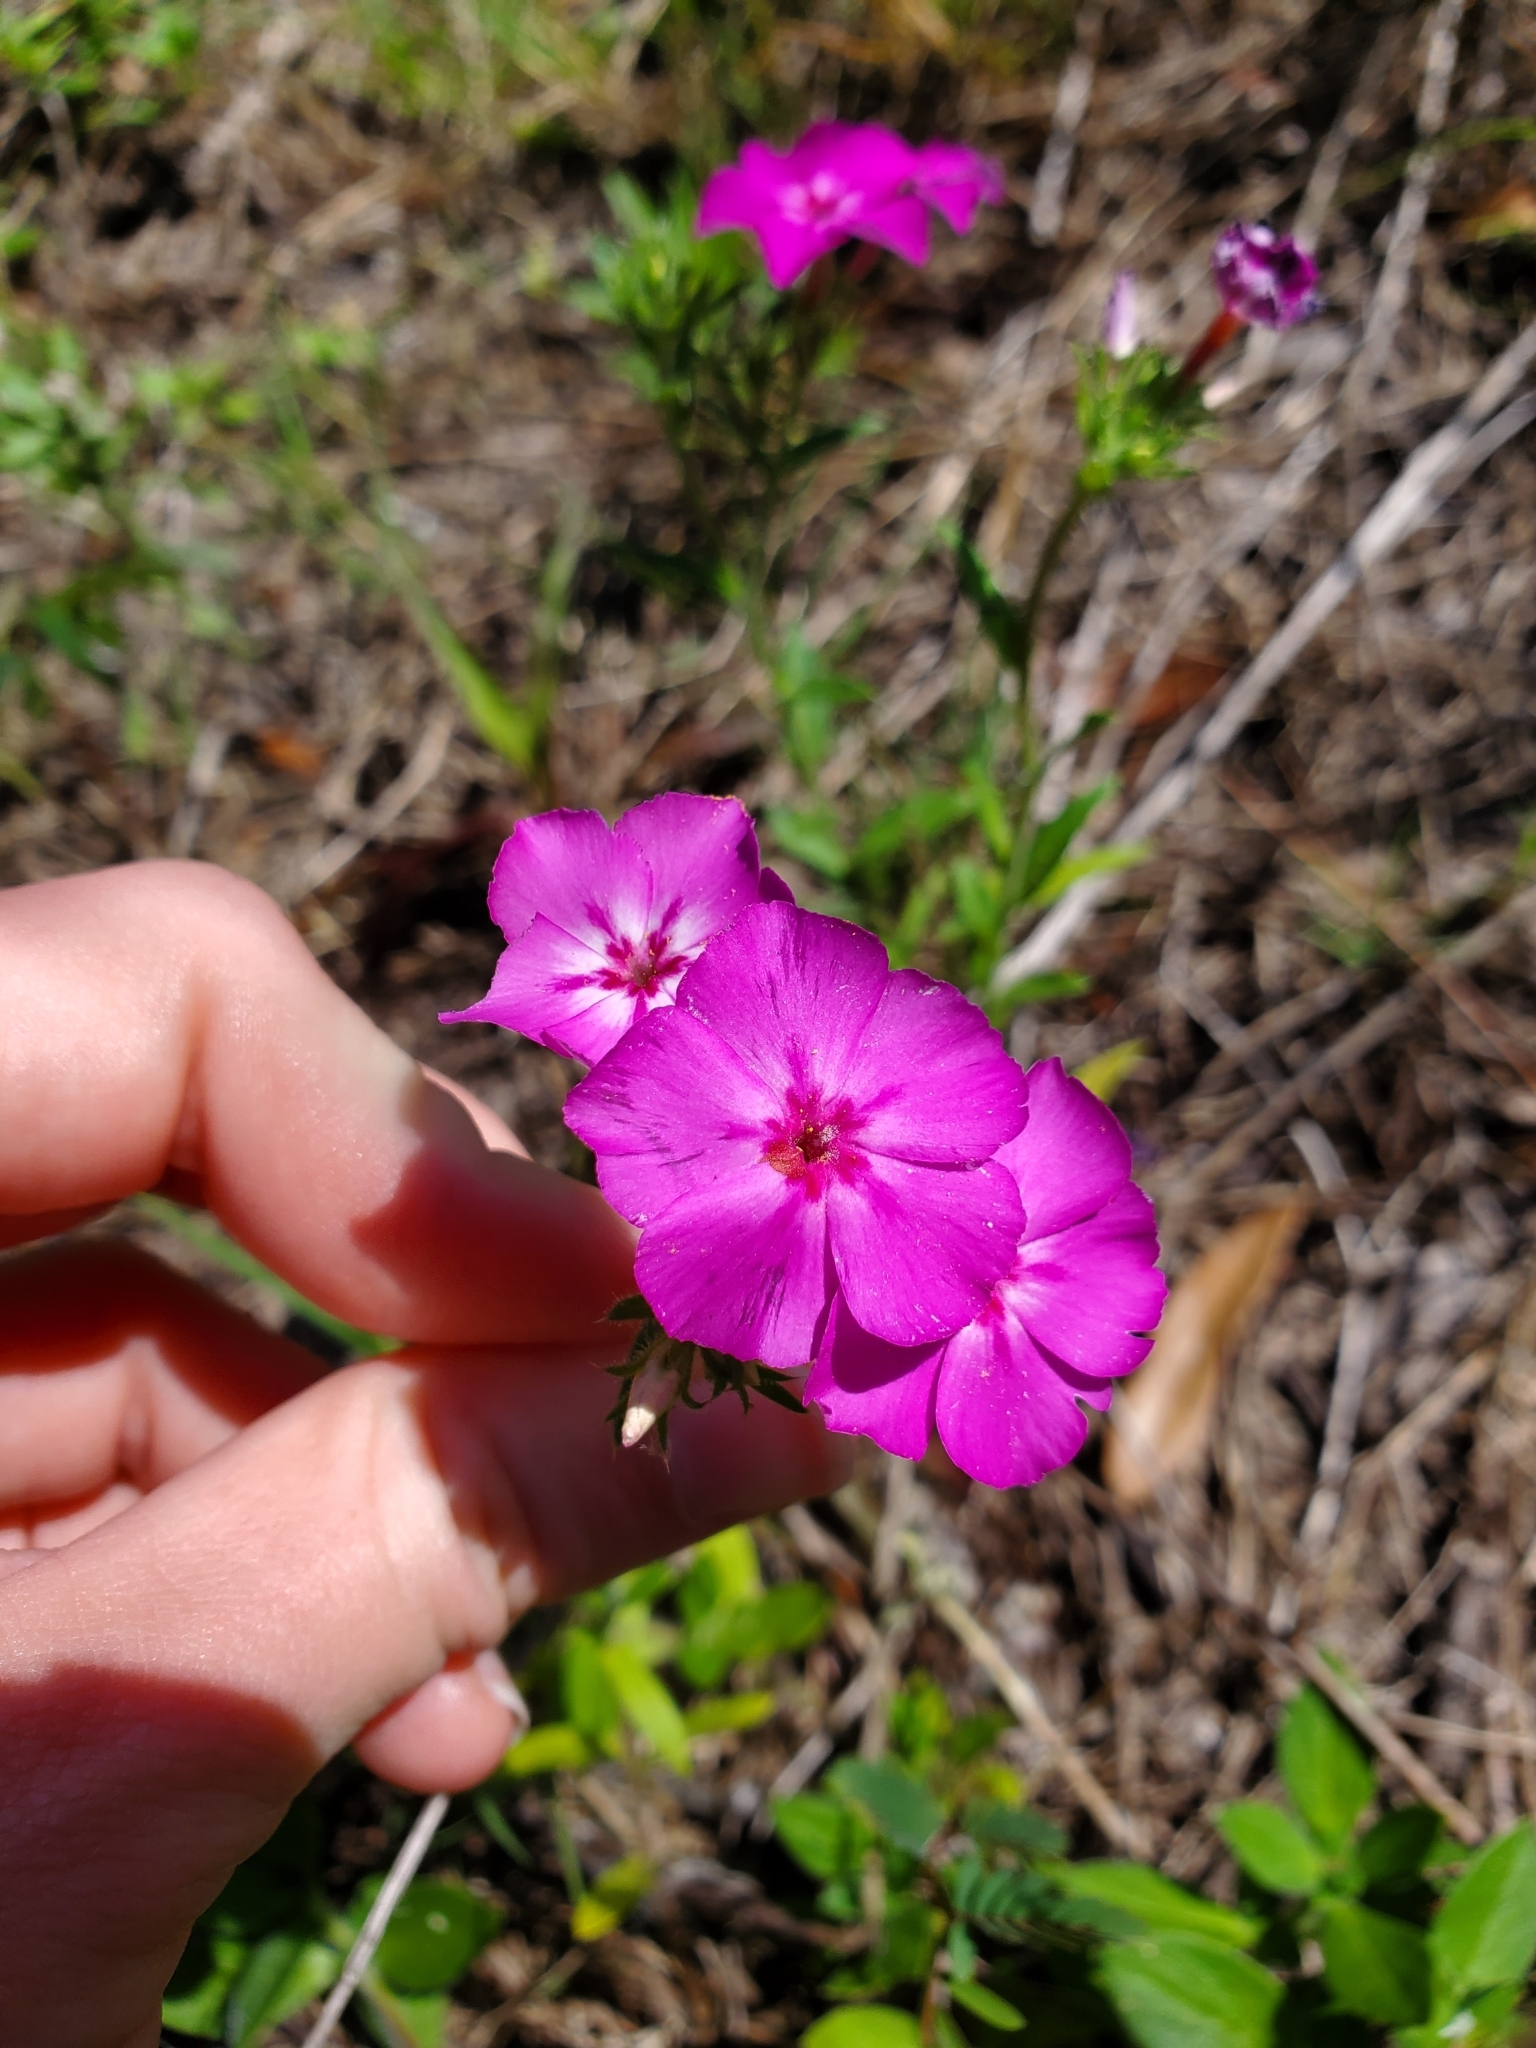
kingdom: Plantae
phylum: Tracheophyta
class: Magnoliopsida
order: Ericales
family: Polemoniaceae
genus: Phlox
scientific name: Phlox drummondii
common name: Drummond's phlox
